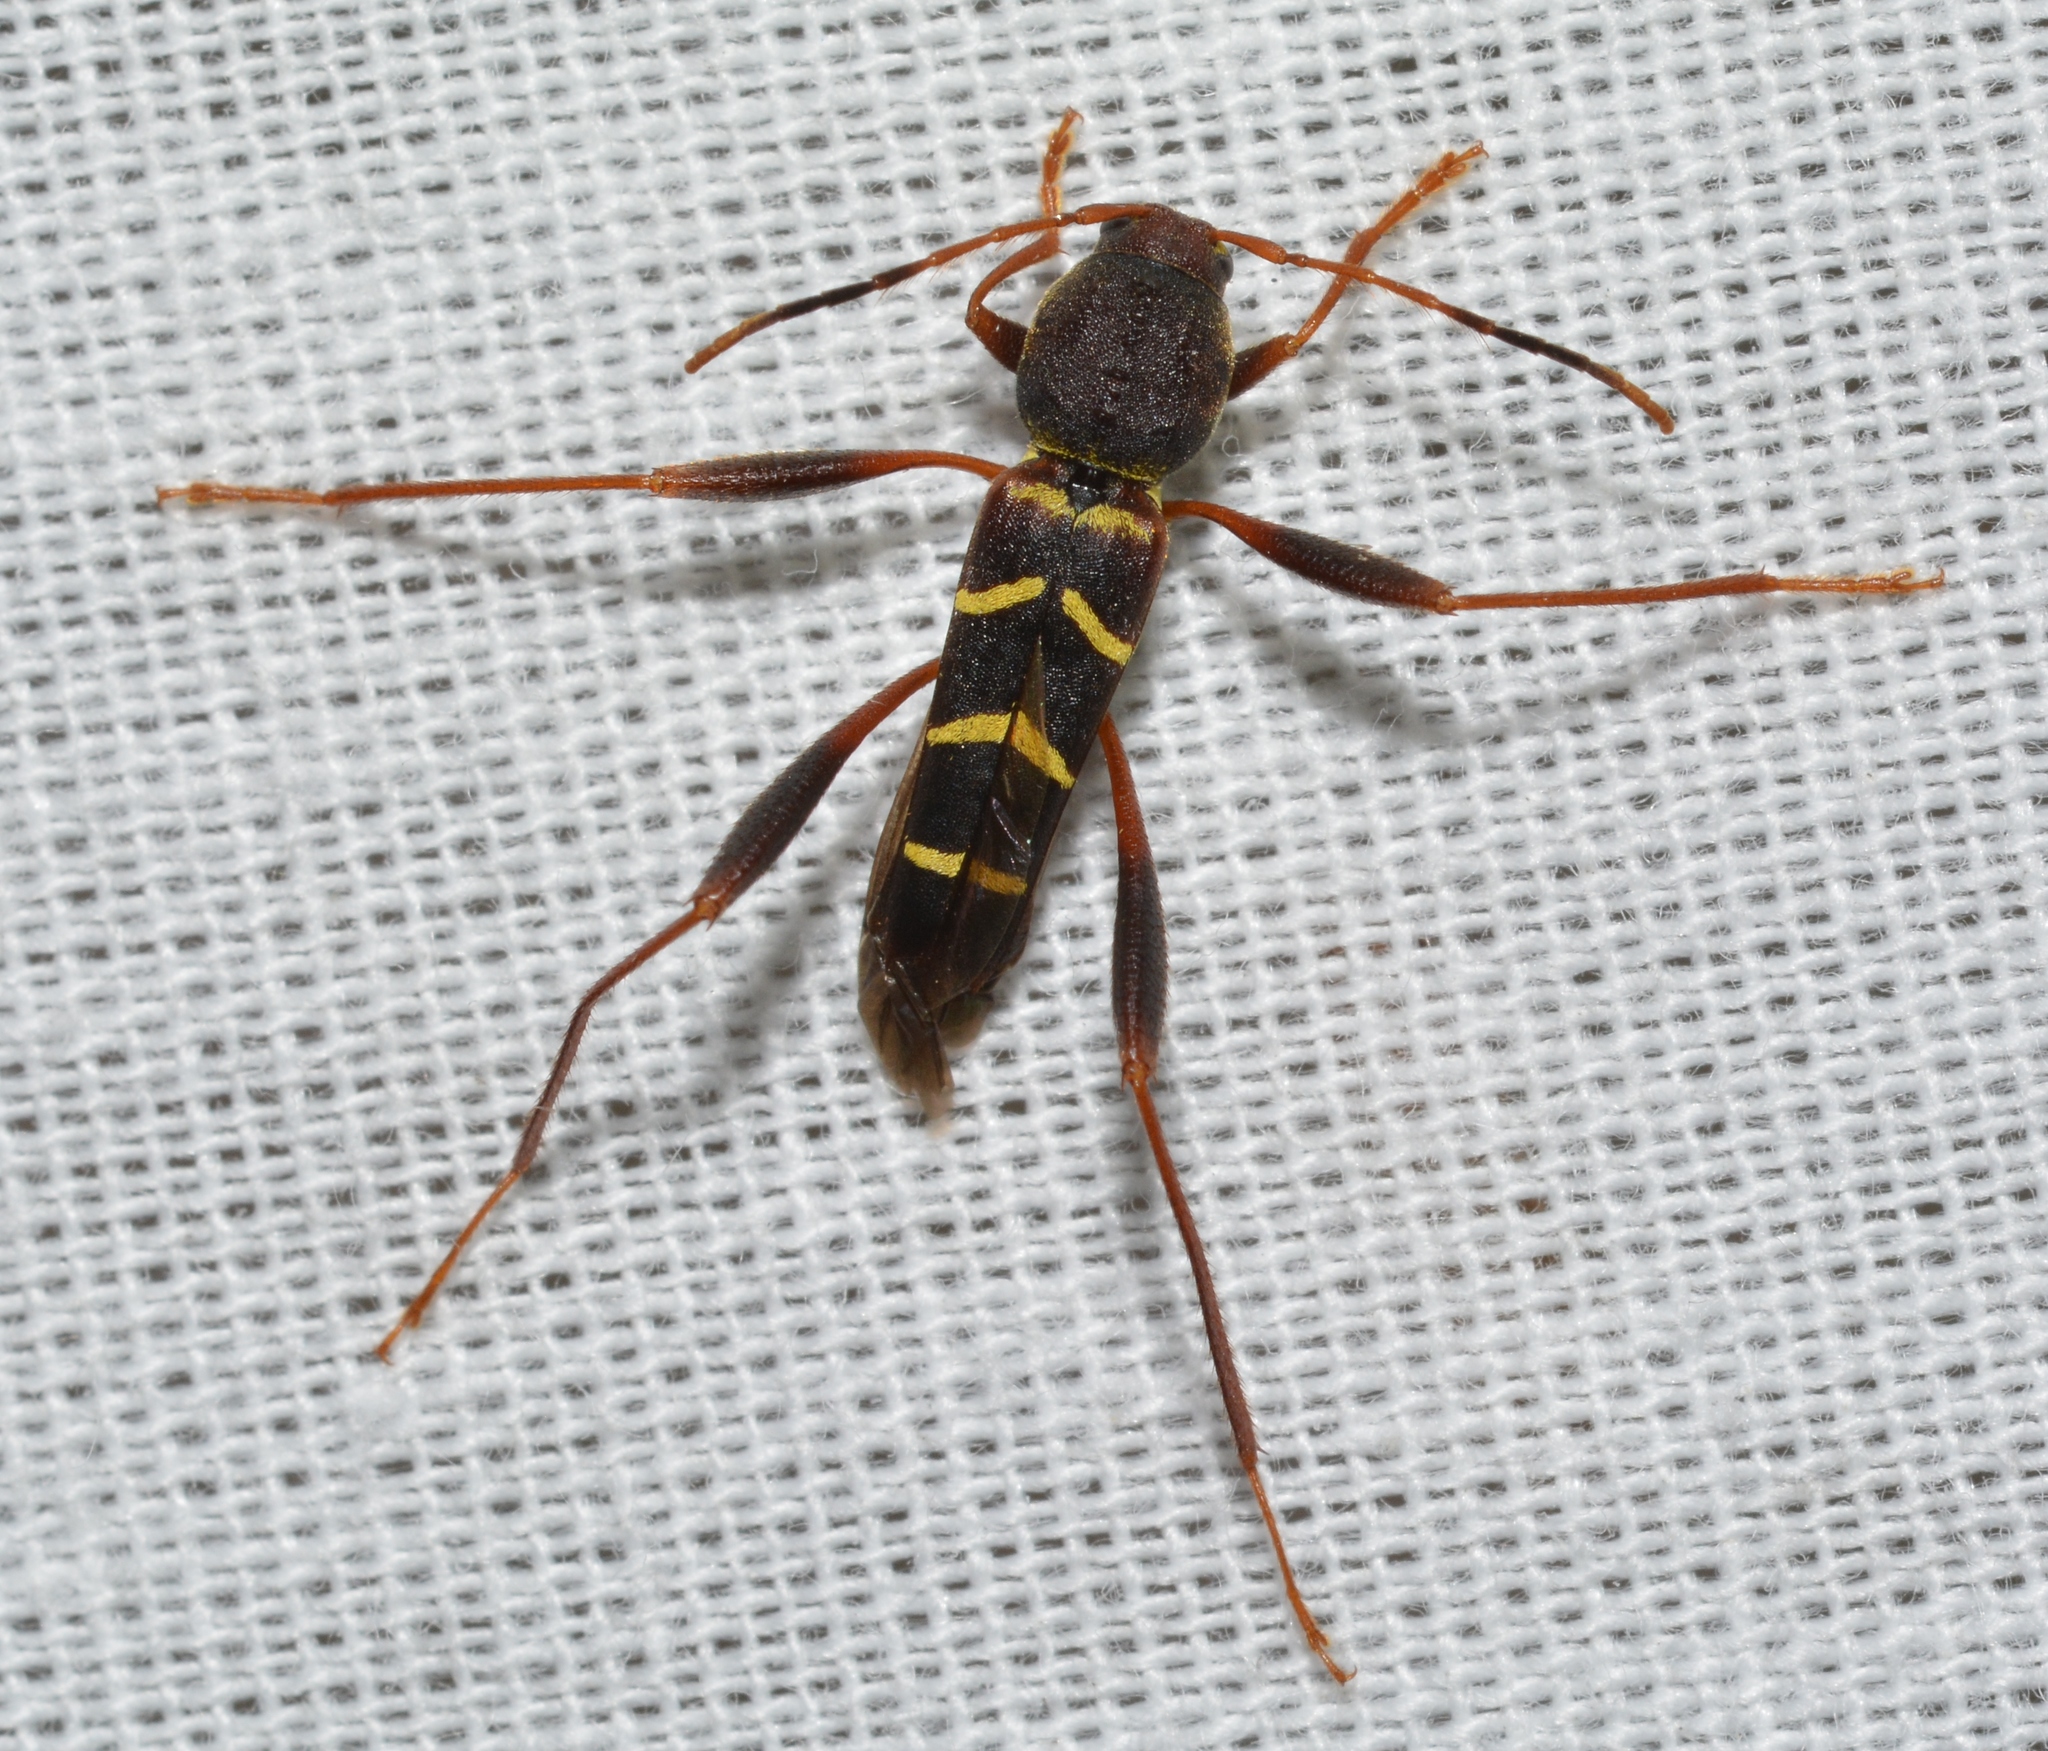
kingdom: Animalia
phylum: Arthropoda
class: Insecta
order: Coleoptera
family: Cerambycidae
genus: Neoclytus
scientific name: Neoclytus acuminatus
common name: Read-headed ash borer
